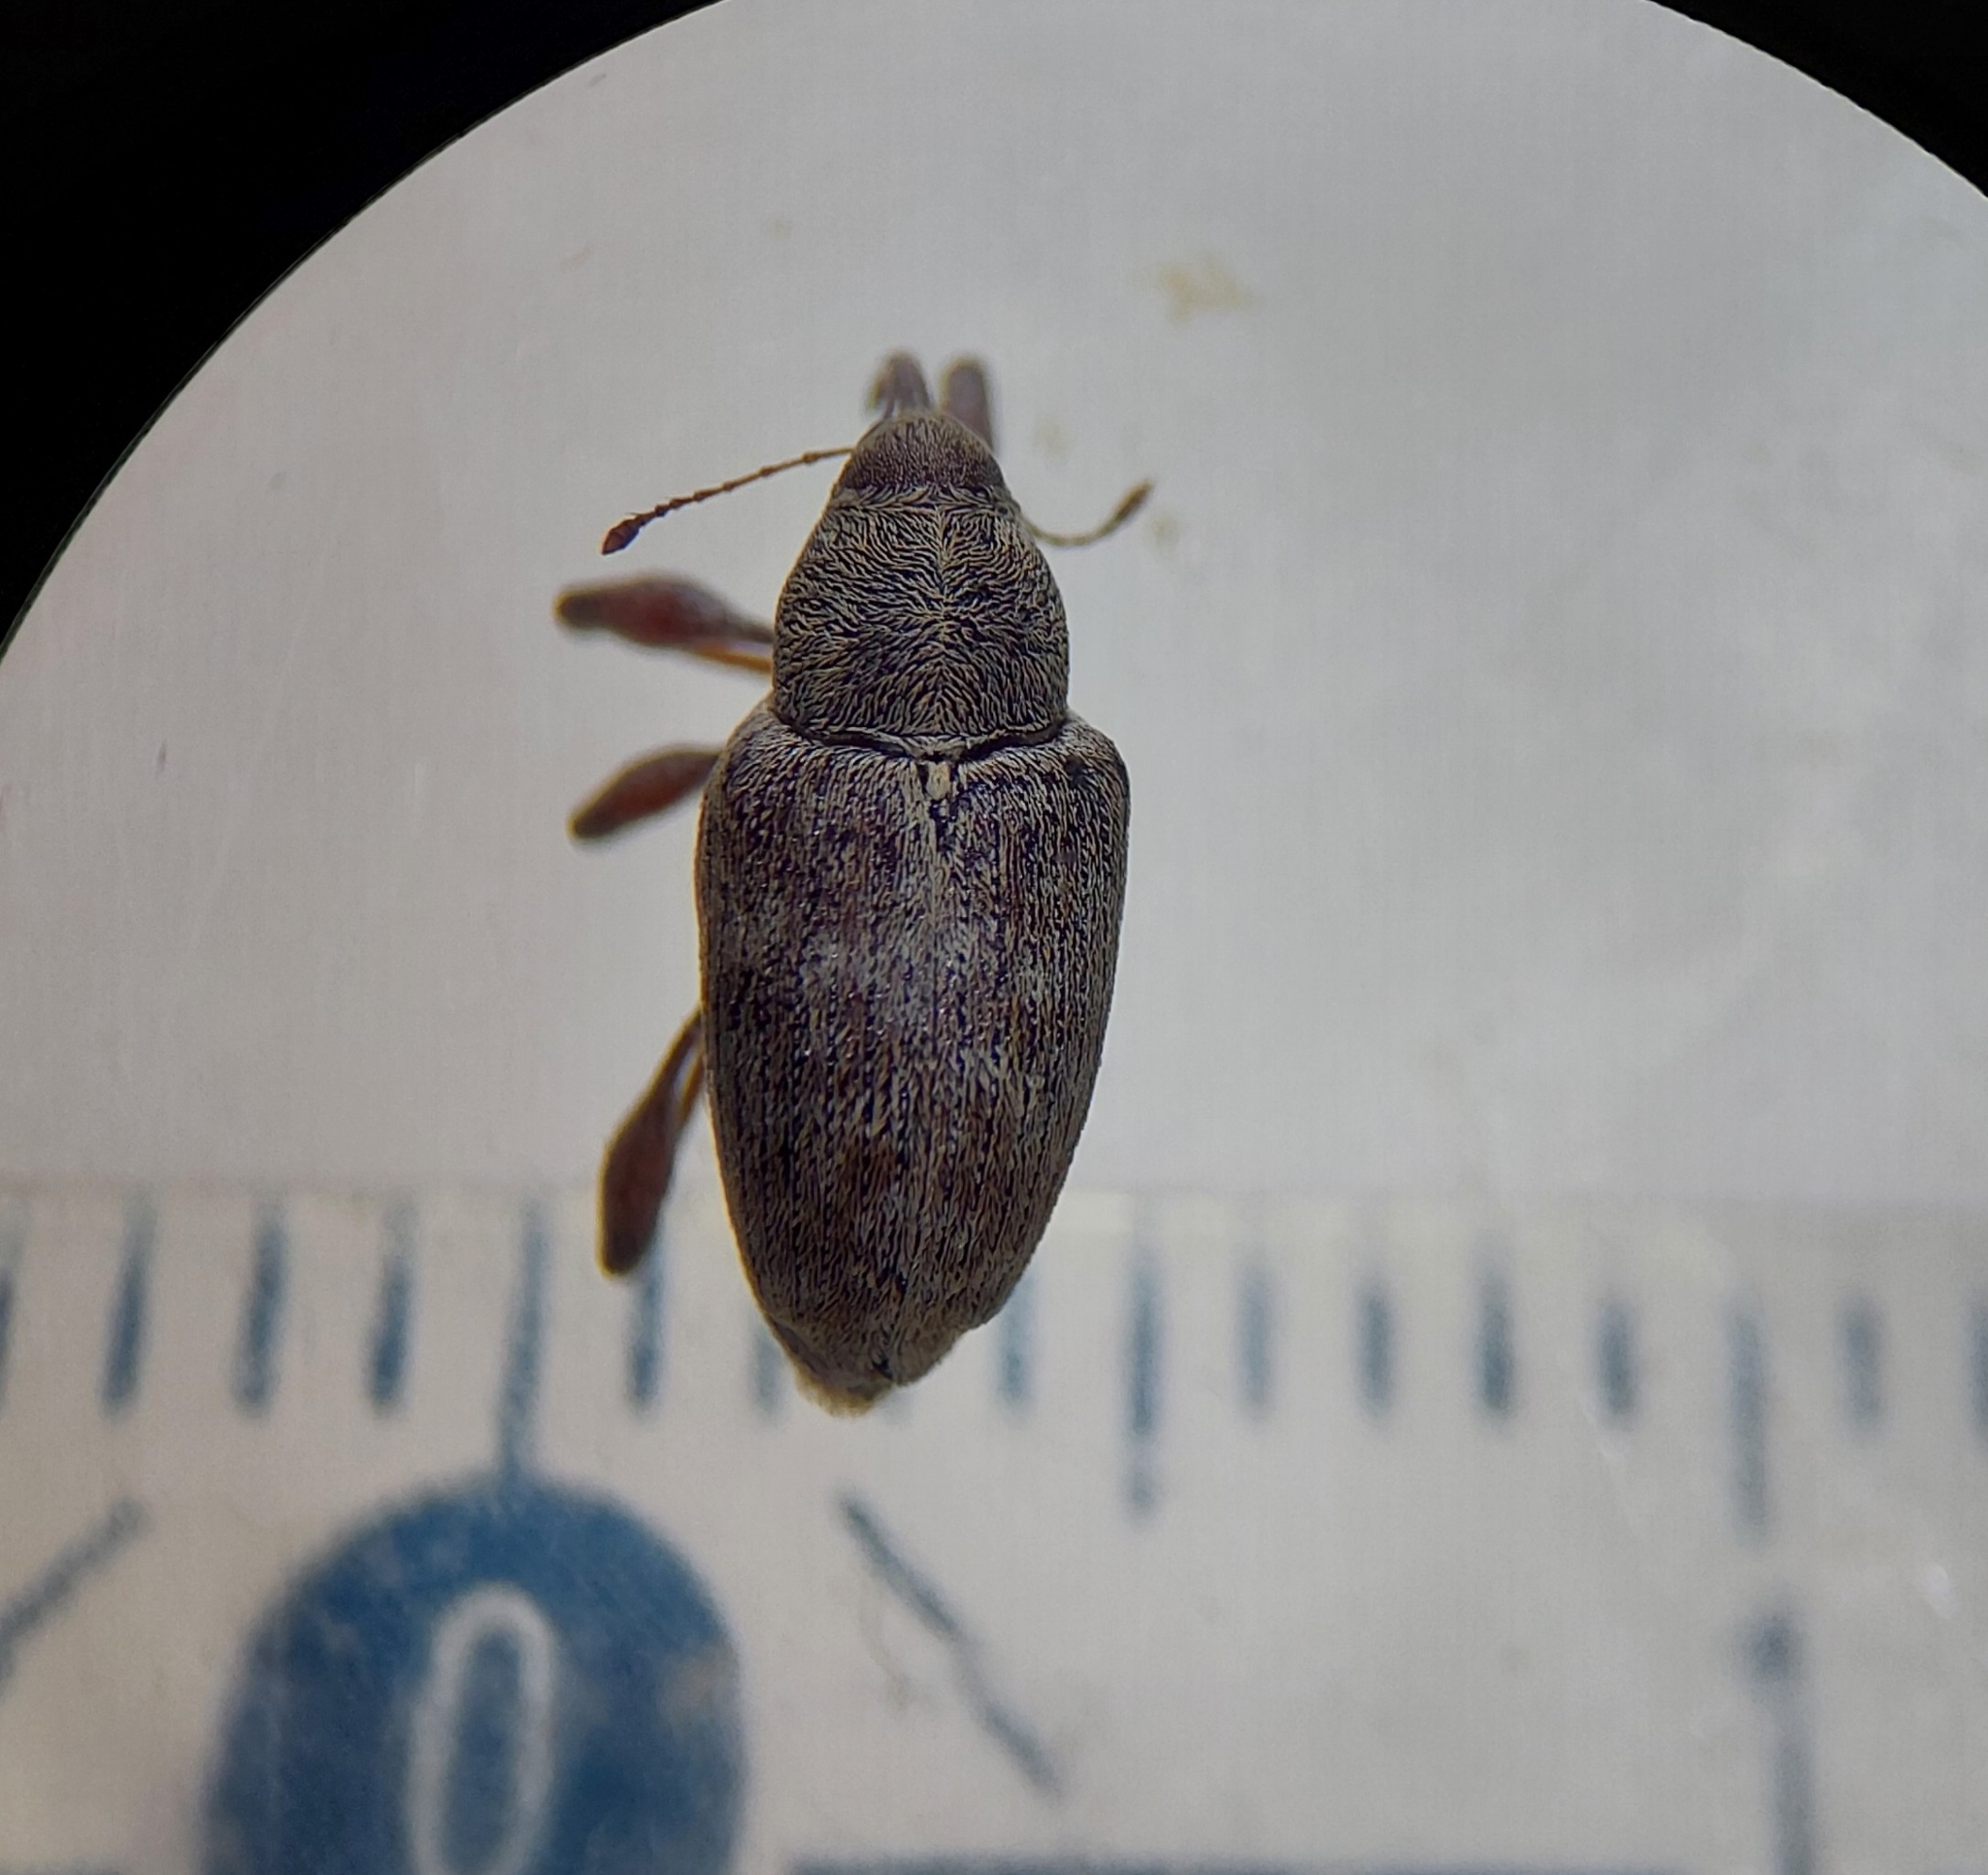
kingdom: Animalia
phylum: Arthropoda
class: Insecta
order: Coleoptera
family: Curculionidae
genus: Curculio
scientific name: Curculio elephas
